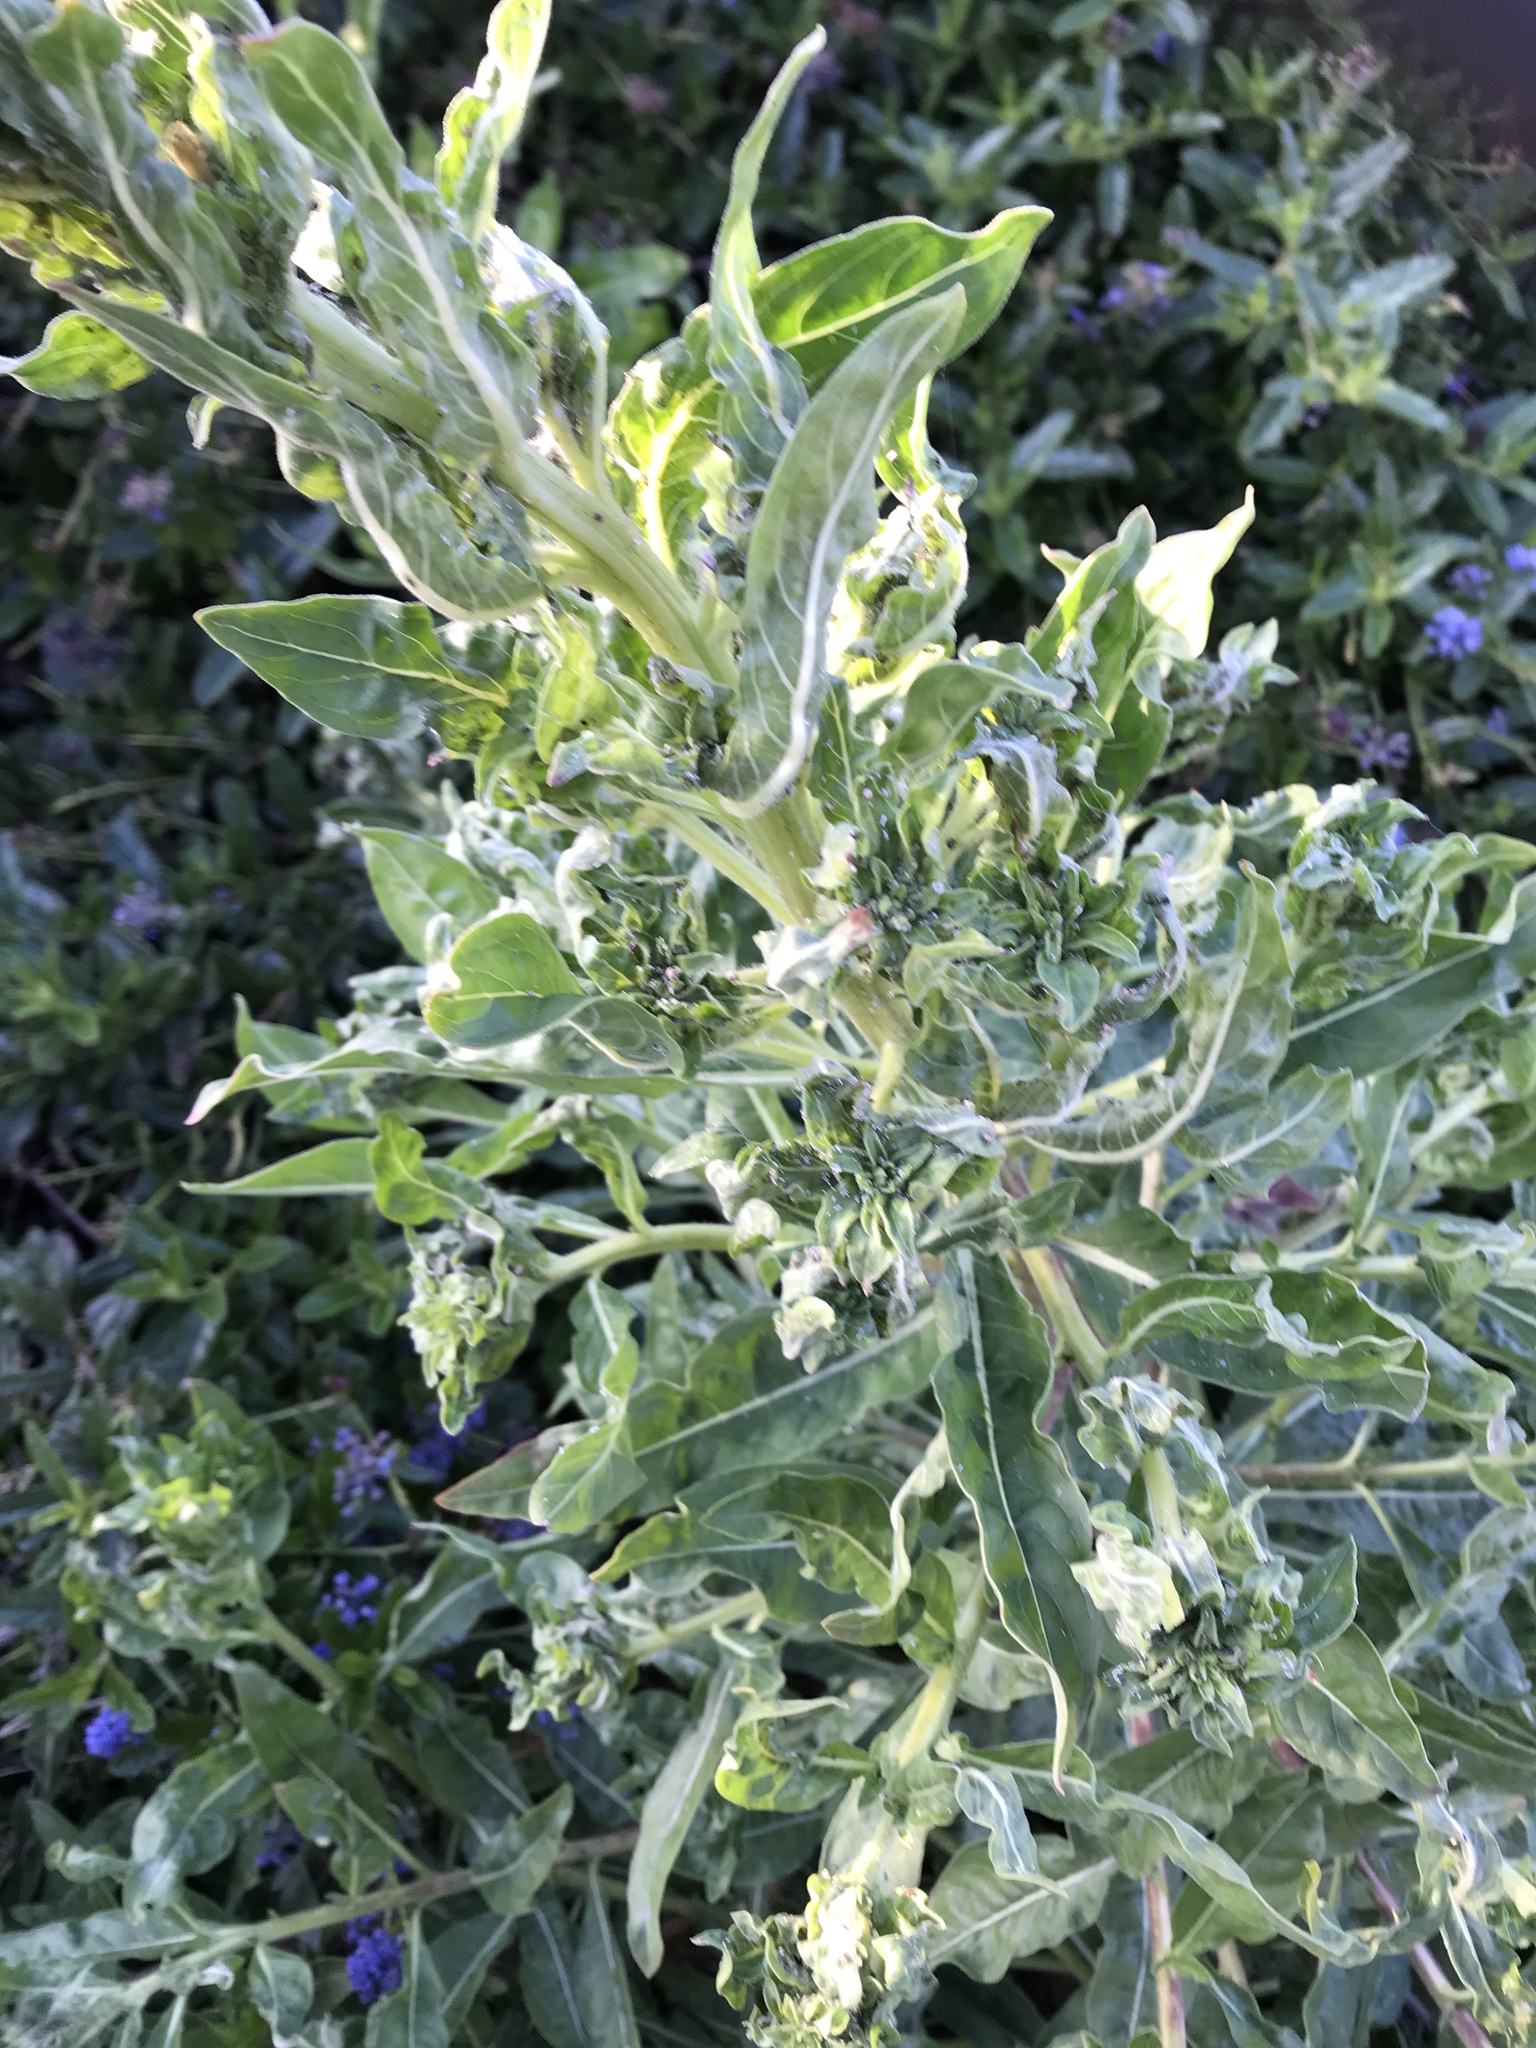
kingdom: Plantae
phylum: Tracheophyta
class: Magnoliopsida
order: Boraginales
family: Boraginaceae
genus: Cynoglossum
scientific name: Cynoglossum officinale
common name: Hound's-tongue
